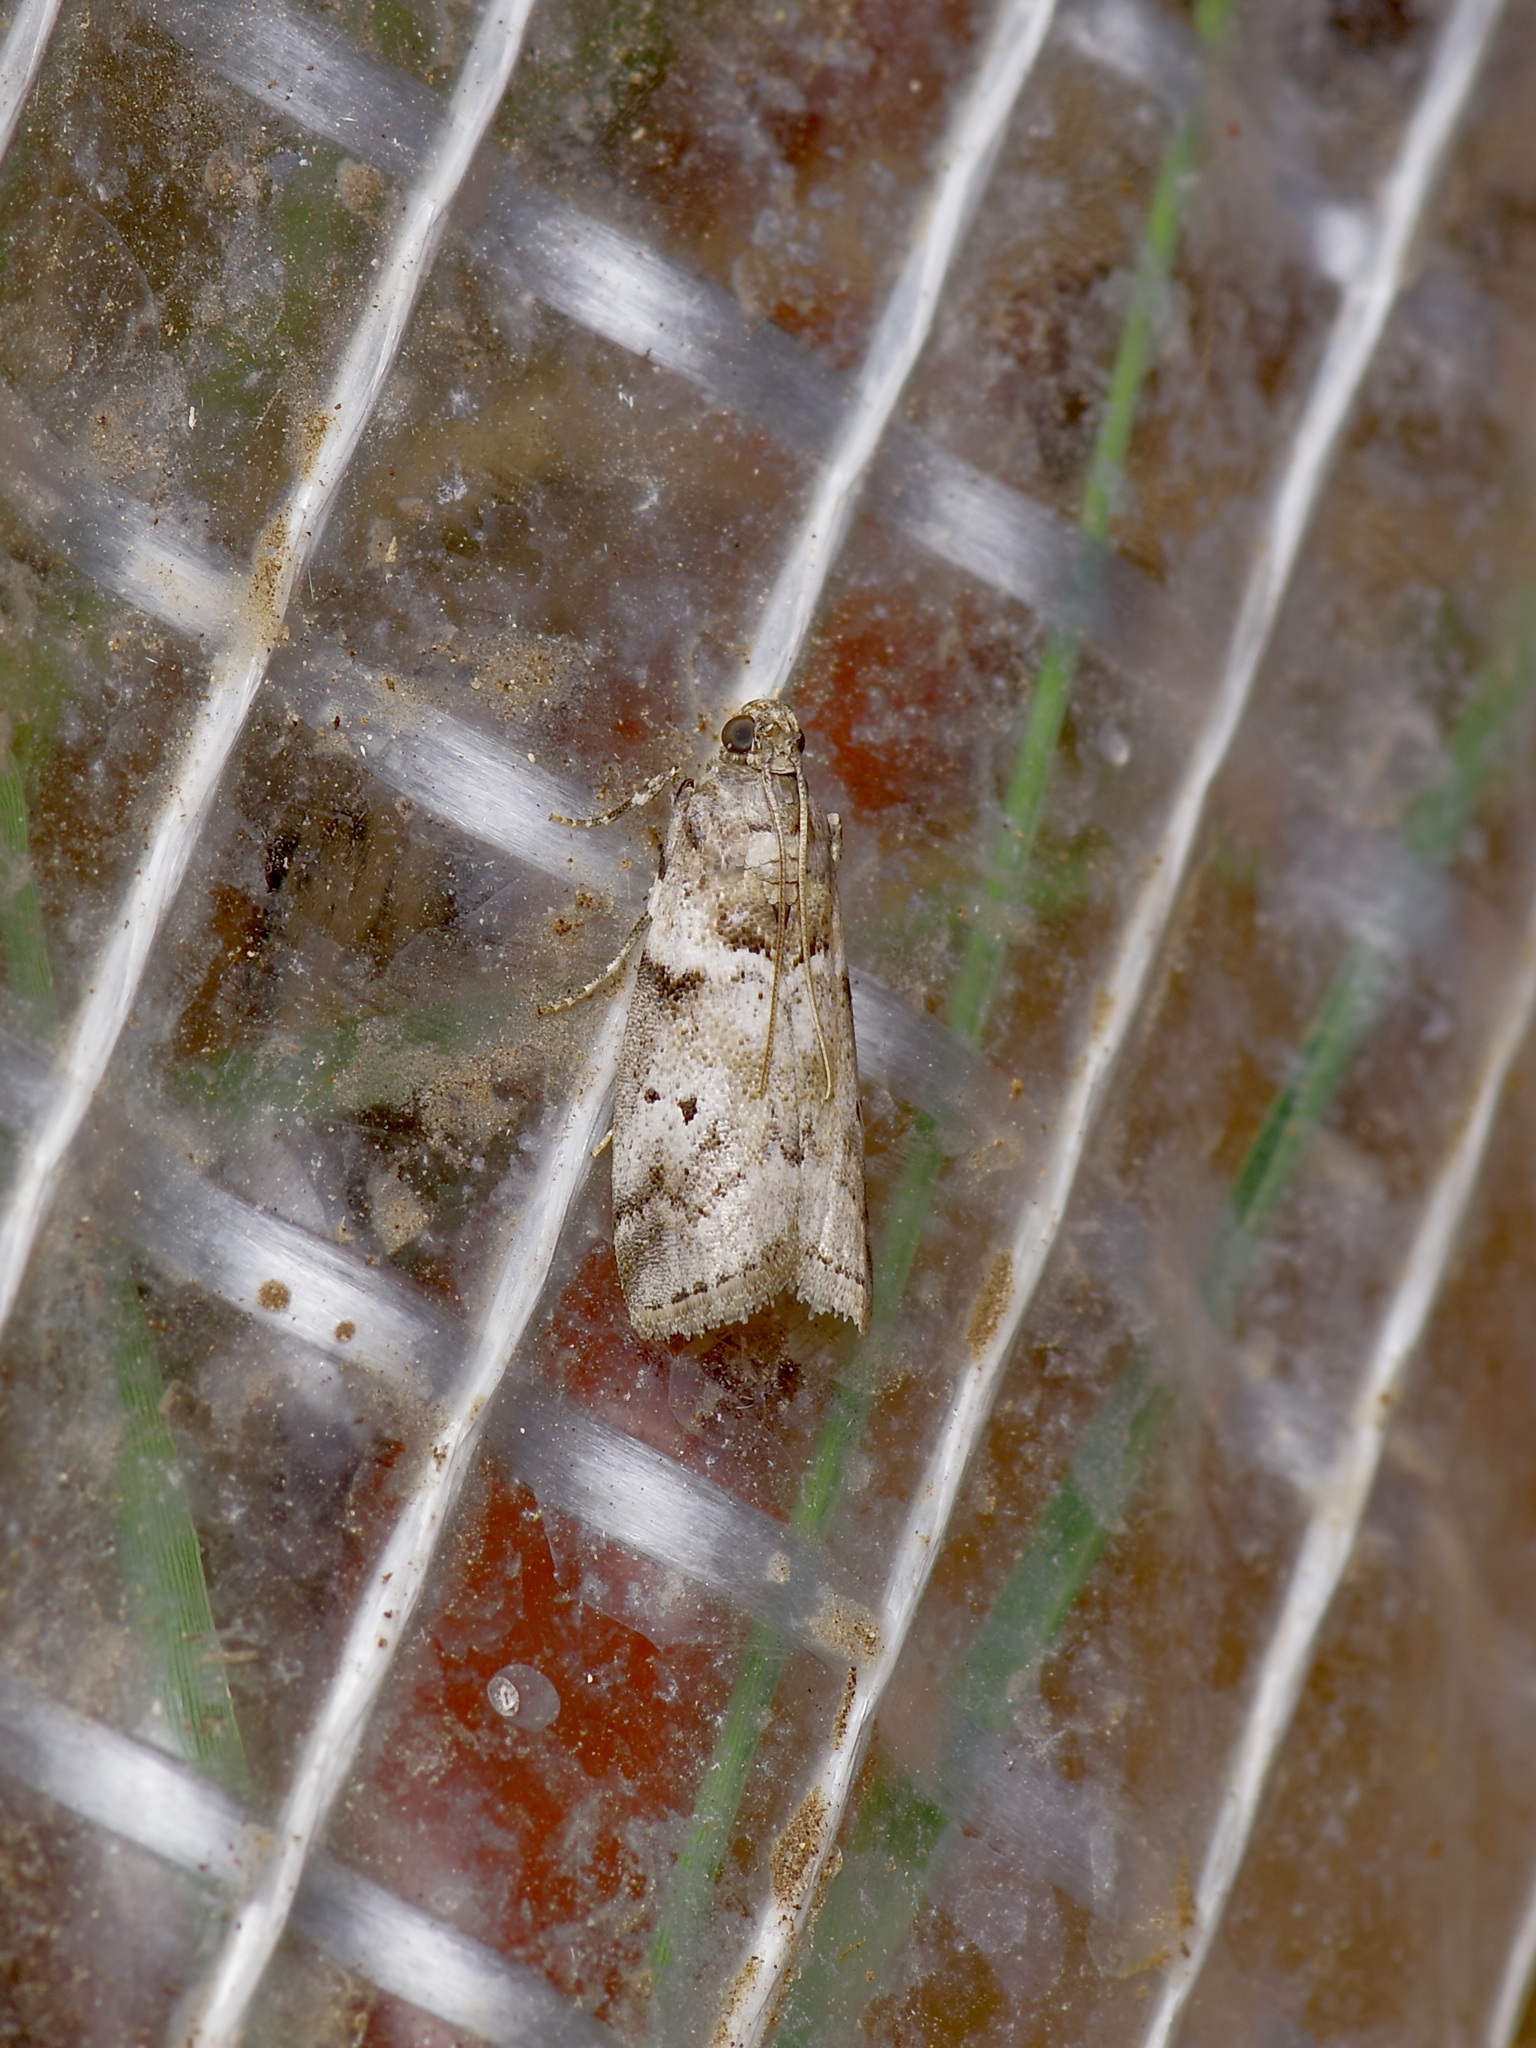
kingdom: Animalia
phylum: Arthropoda
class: Insecta
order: Lepidoptera
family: Pyralidae
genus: Salebriaria
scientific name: Salebriaria annulosella
